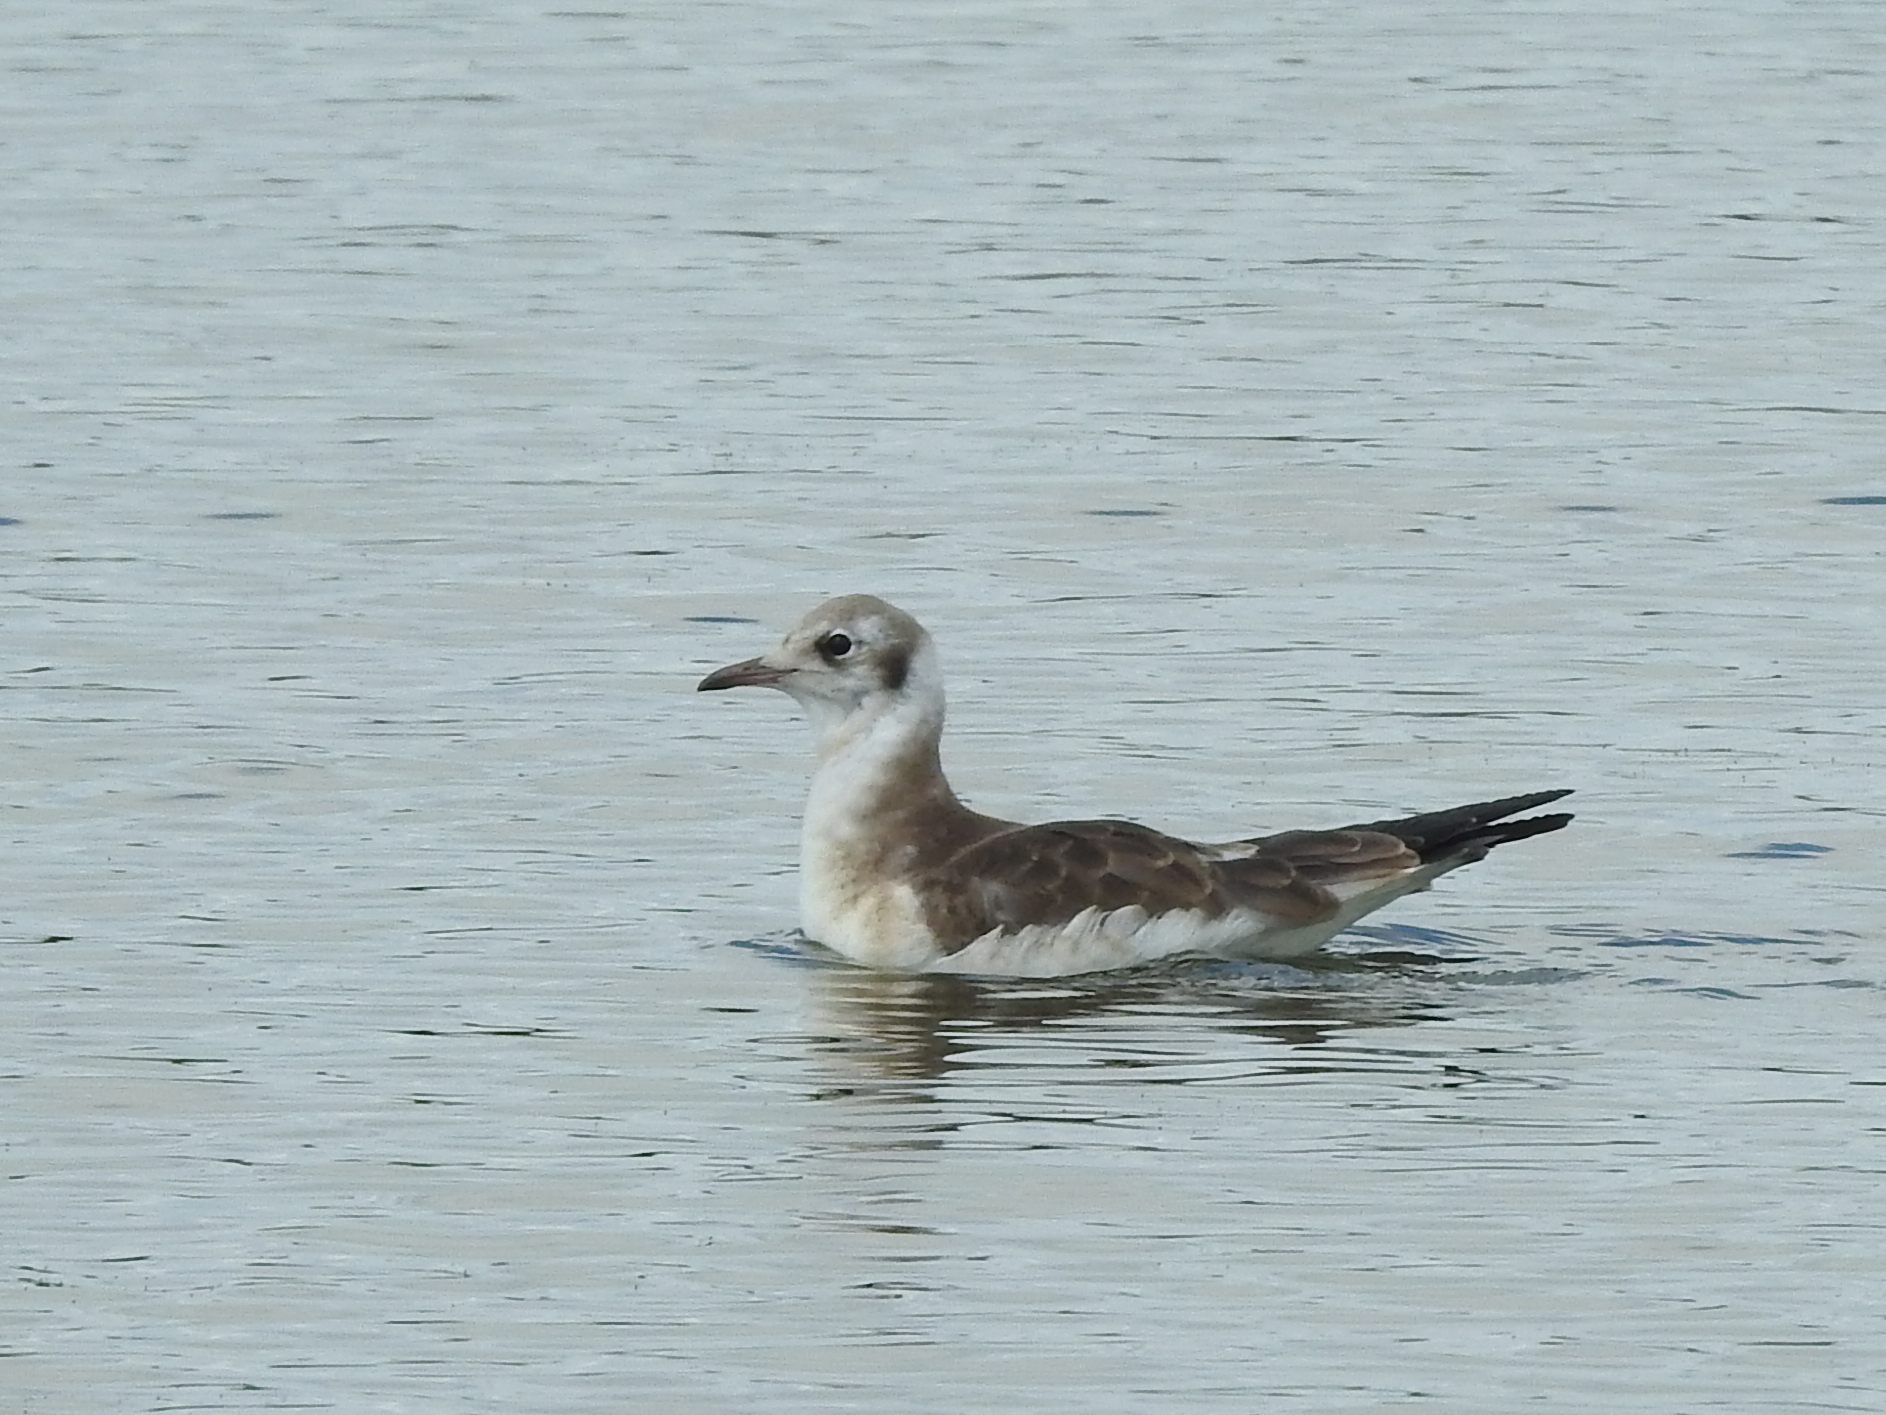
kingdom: Animalia
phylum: Chordata
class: Aves
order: Charadriiformes
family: Laridae
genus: Chroicocephalus
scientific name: Chroicocephalus ridibundus
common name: Black-headed gull
